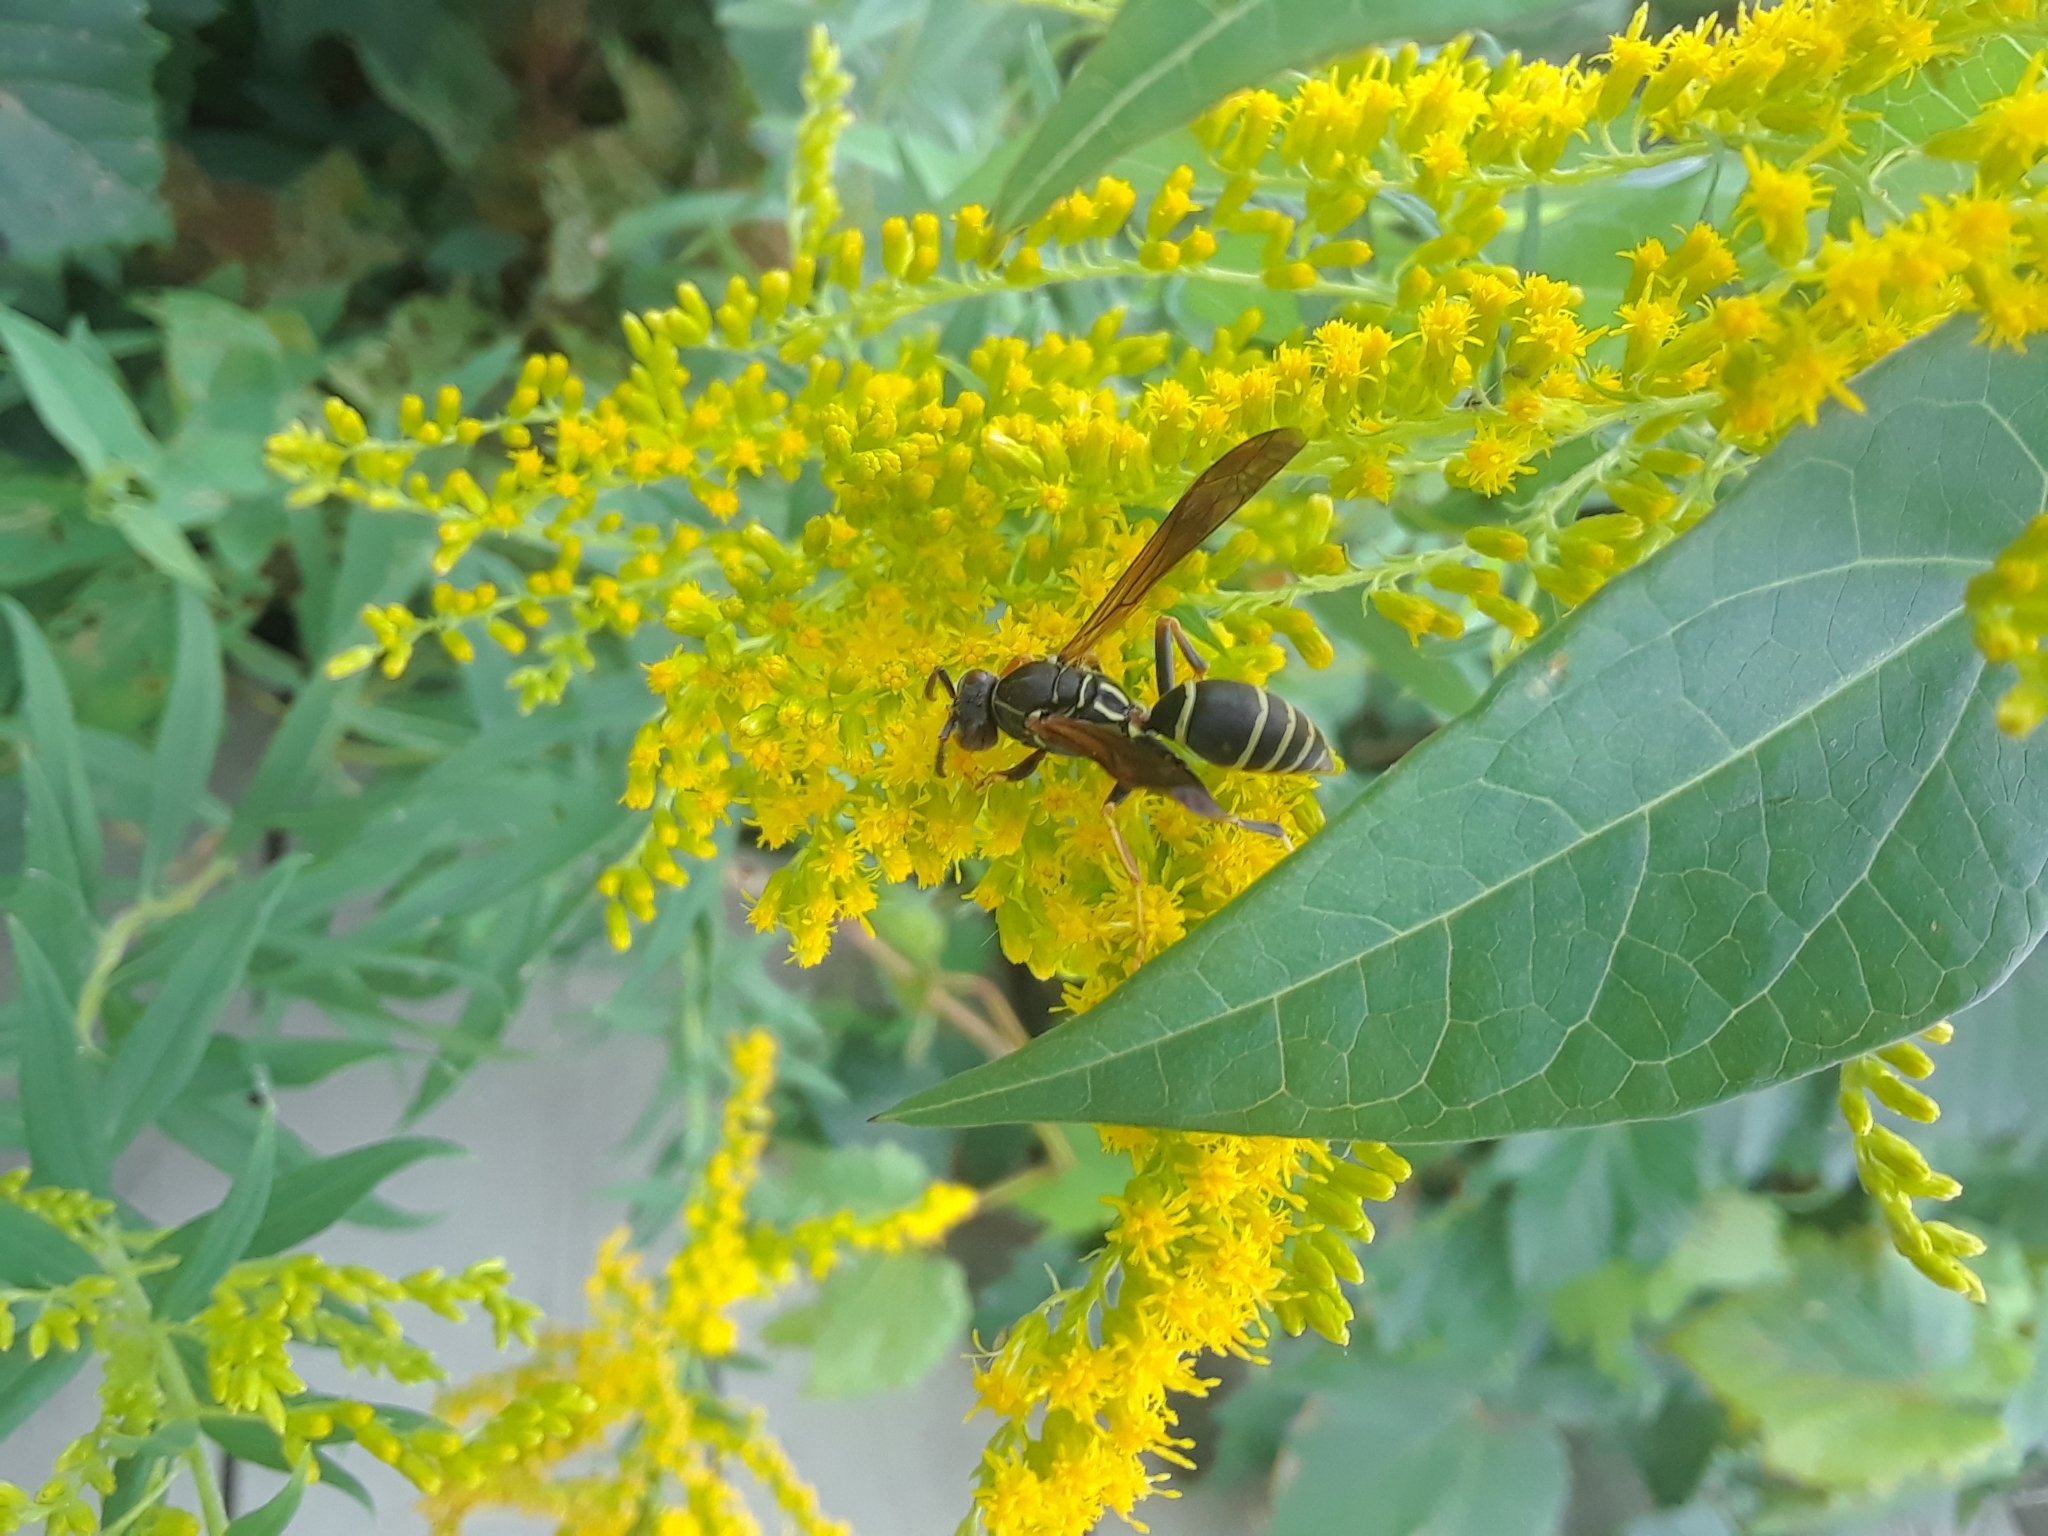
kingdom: Animalia
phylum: Arthropoda
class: Insecta
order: Hymenoptera
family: Eumenidae
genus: Polistes
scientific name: Polistes fuscatus
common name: Dark paper wasp
